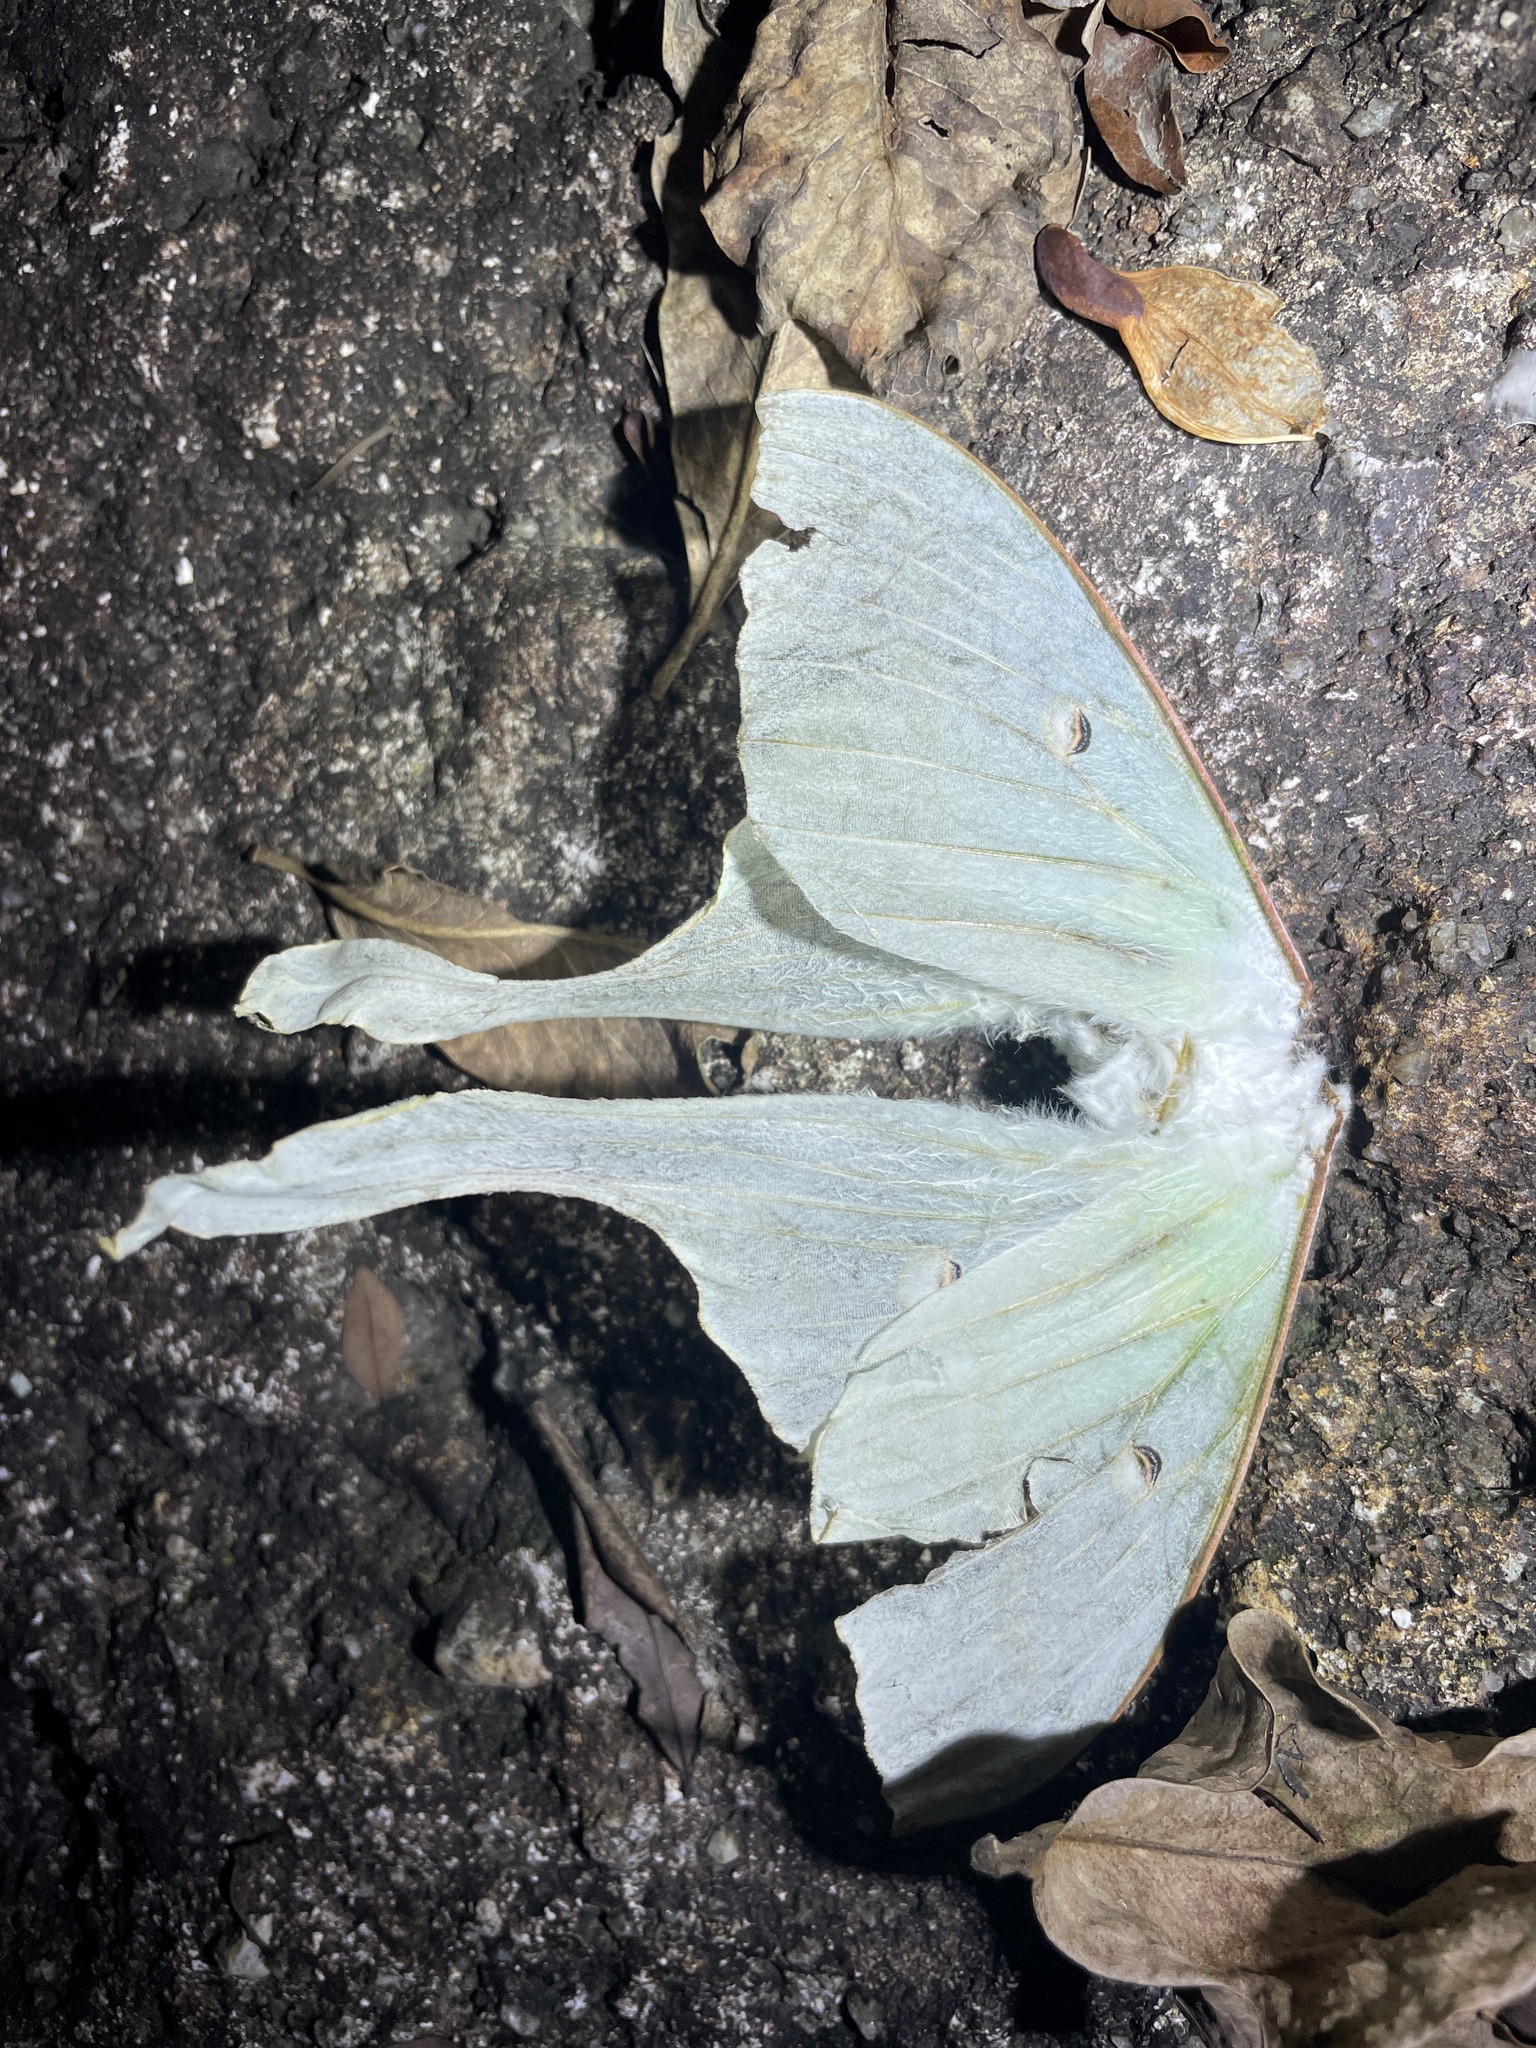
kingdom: Animalia
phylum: Arthropoda
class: Insecta
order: Lepidoptera
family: Saturniidae
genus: Actias
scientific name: Actias ningpoana
